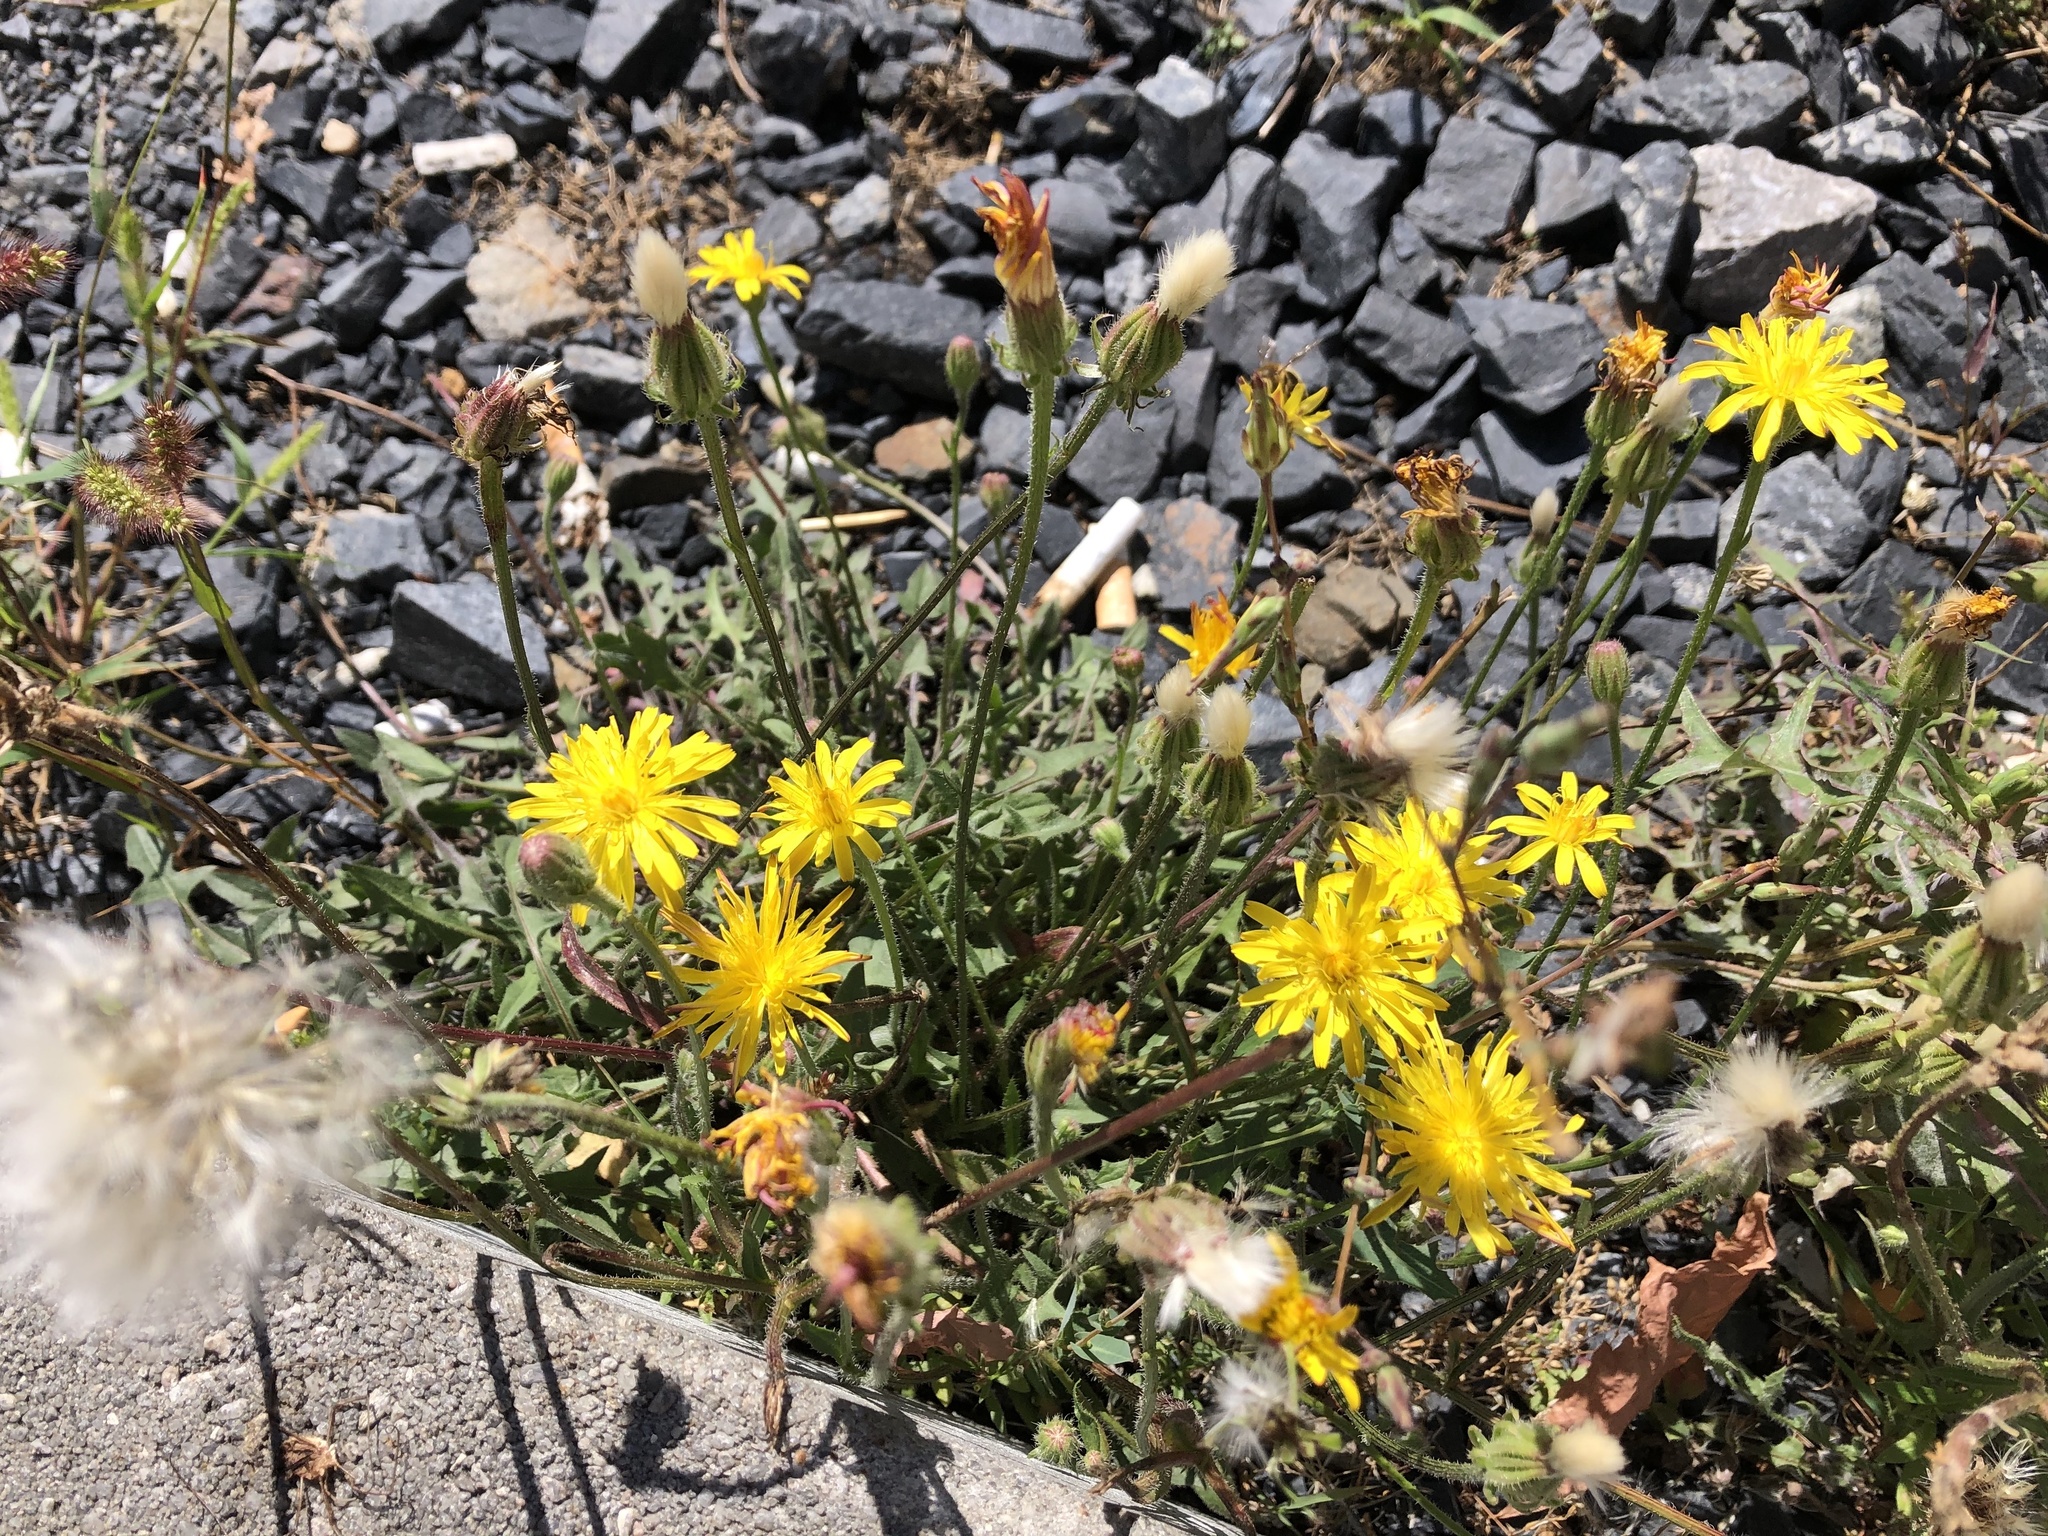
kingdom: Plantae
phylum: Tracheophyta
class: Magnoliopsida
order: Asterales
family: Asteraceae
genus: Crepis
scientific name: Crepis foetida
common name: Stinking hawk's-beard
